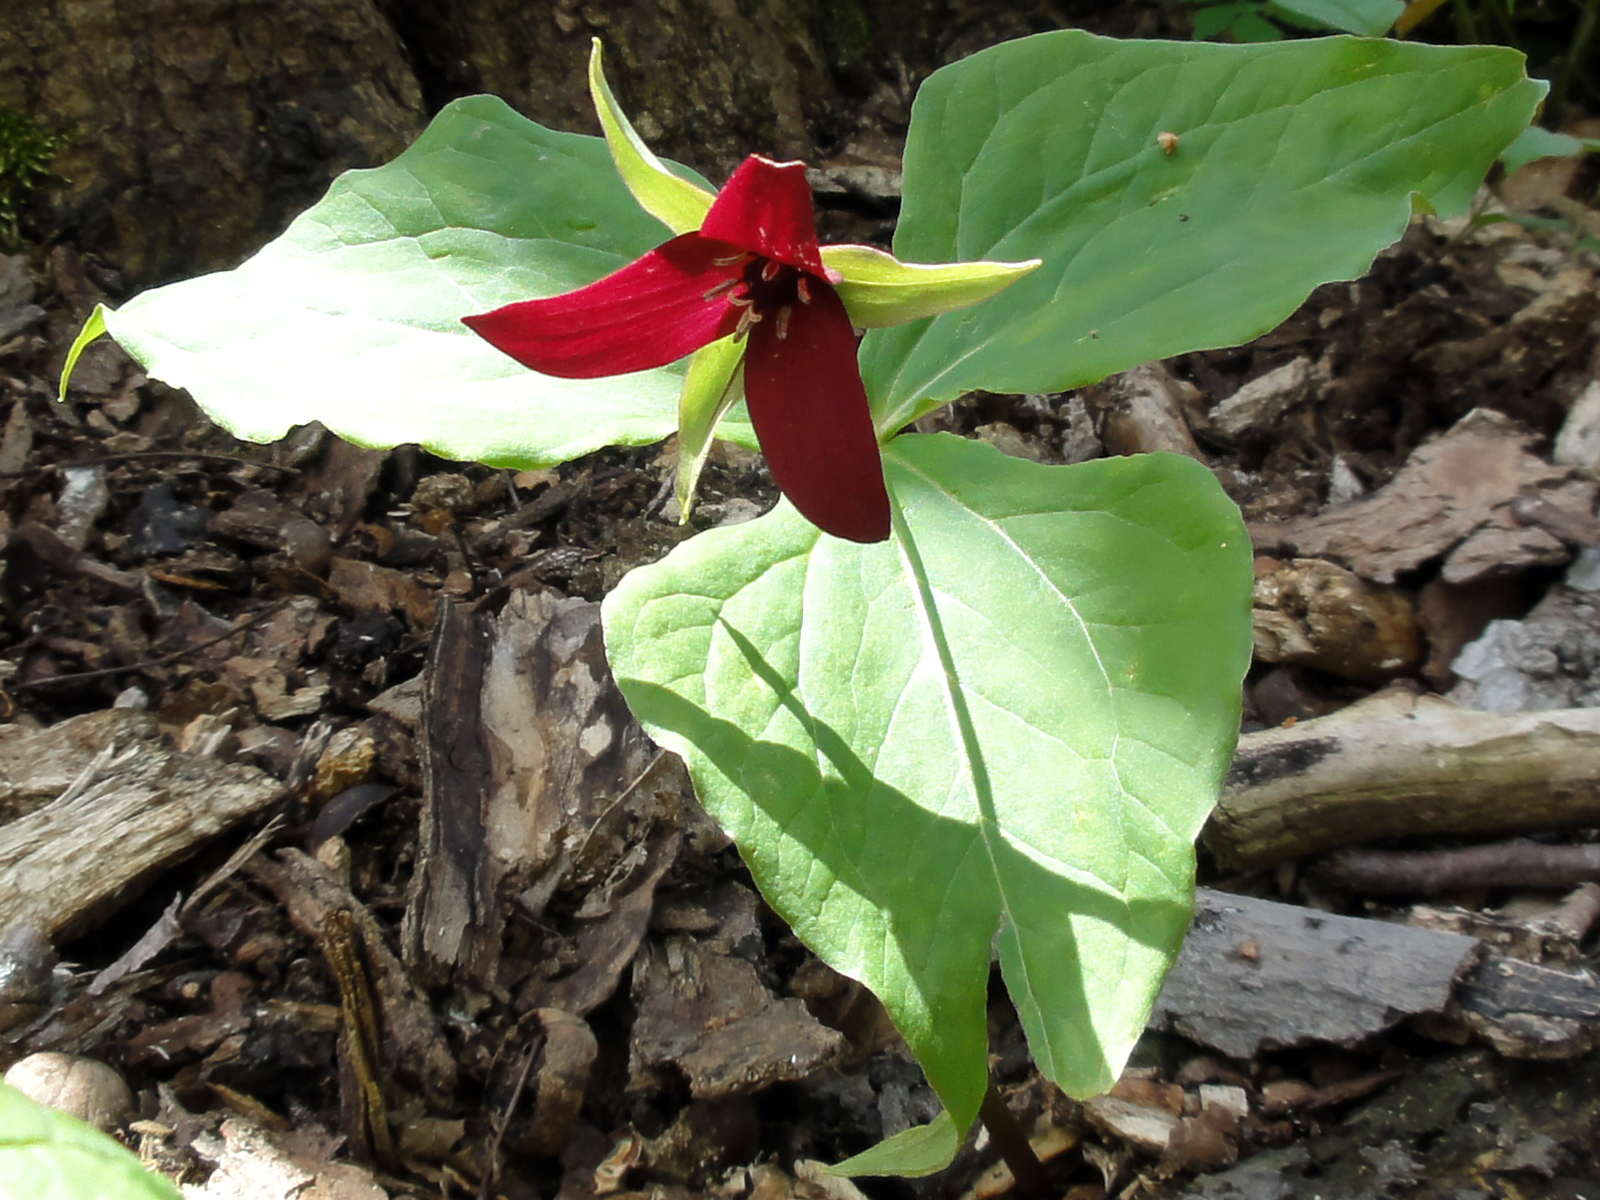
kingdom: Plantae
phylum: Tracheophyta
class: Liliopsida
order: Liliales
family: Melanthiaceae
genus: Trillium
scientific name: Trillium erectum
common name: Purple trillium
